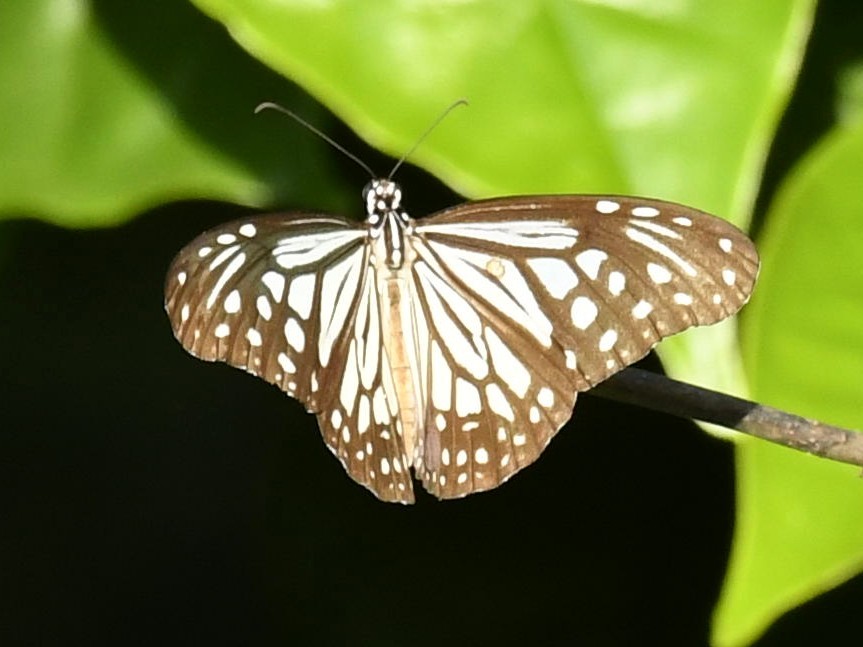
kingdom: Animalia
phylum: Arthropoda
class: Insecta
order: Lepidoptera
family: Nymphalidae
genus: Parantica
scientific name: Parantica aglea
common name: Glassy tiger
